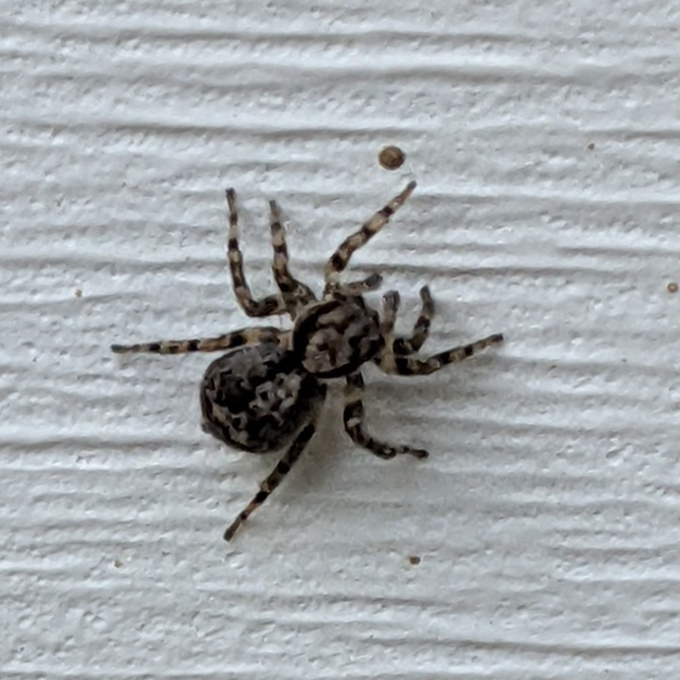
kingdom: Animalia
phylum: Arthropoda
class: Arachnida
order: Araneae
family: Salticidae
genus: Naphrys
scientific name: Naphrys pulex
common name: Flea jumping spider
